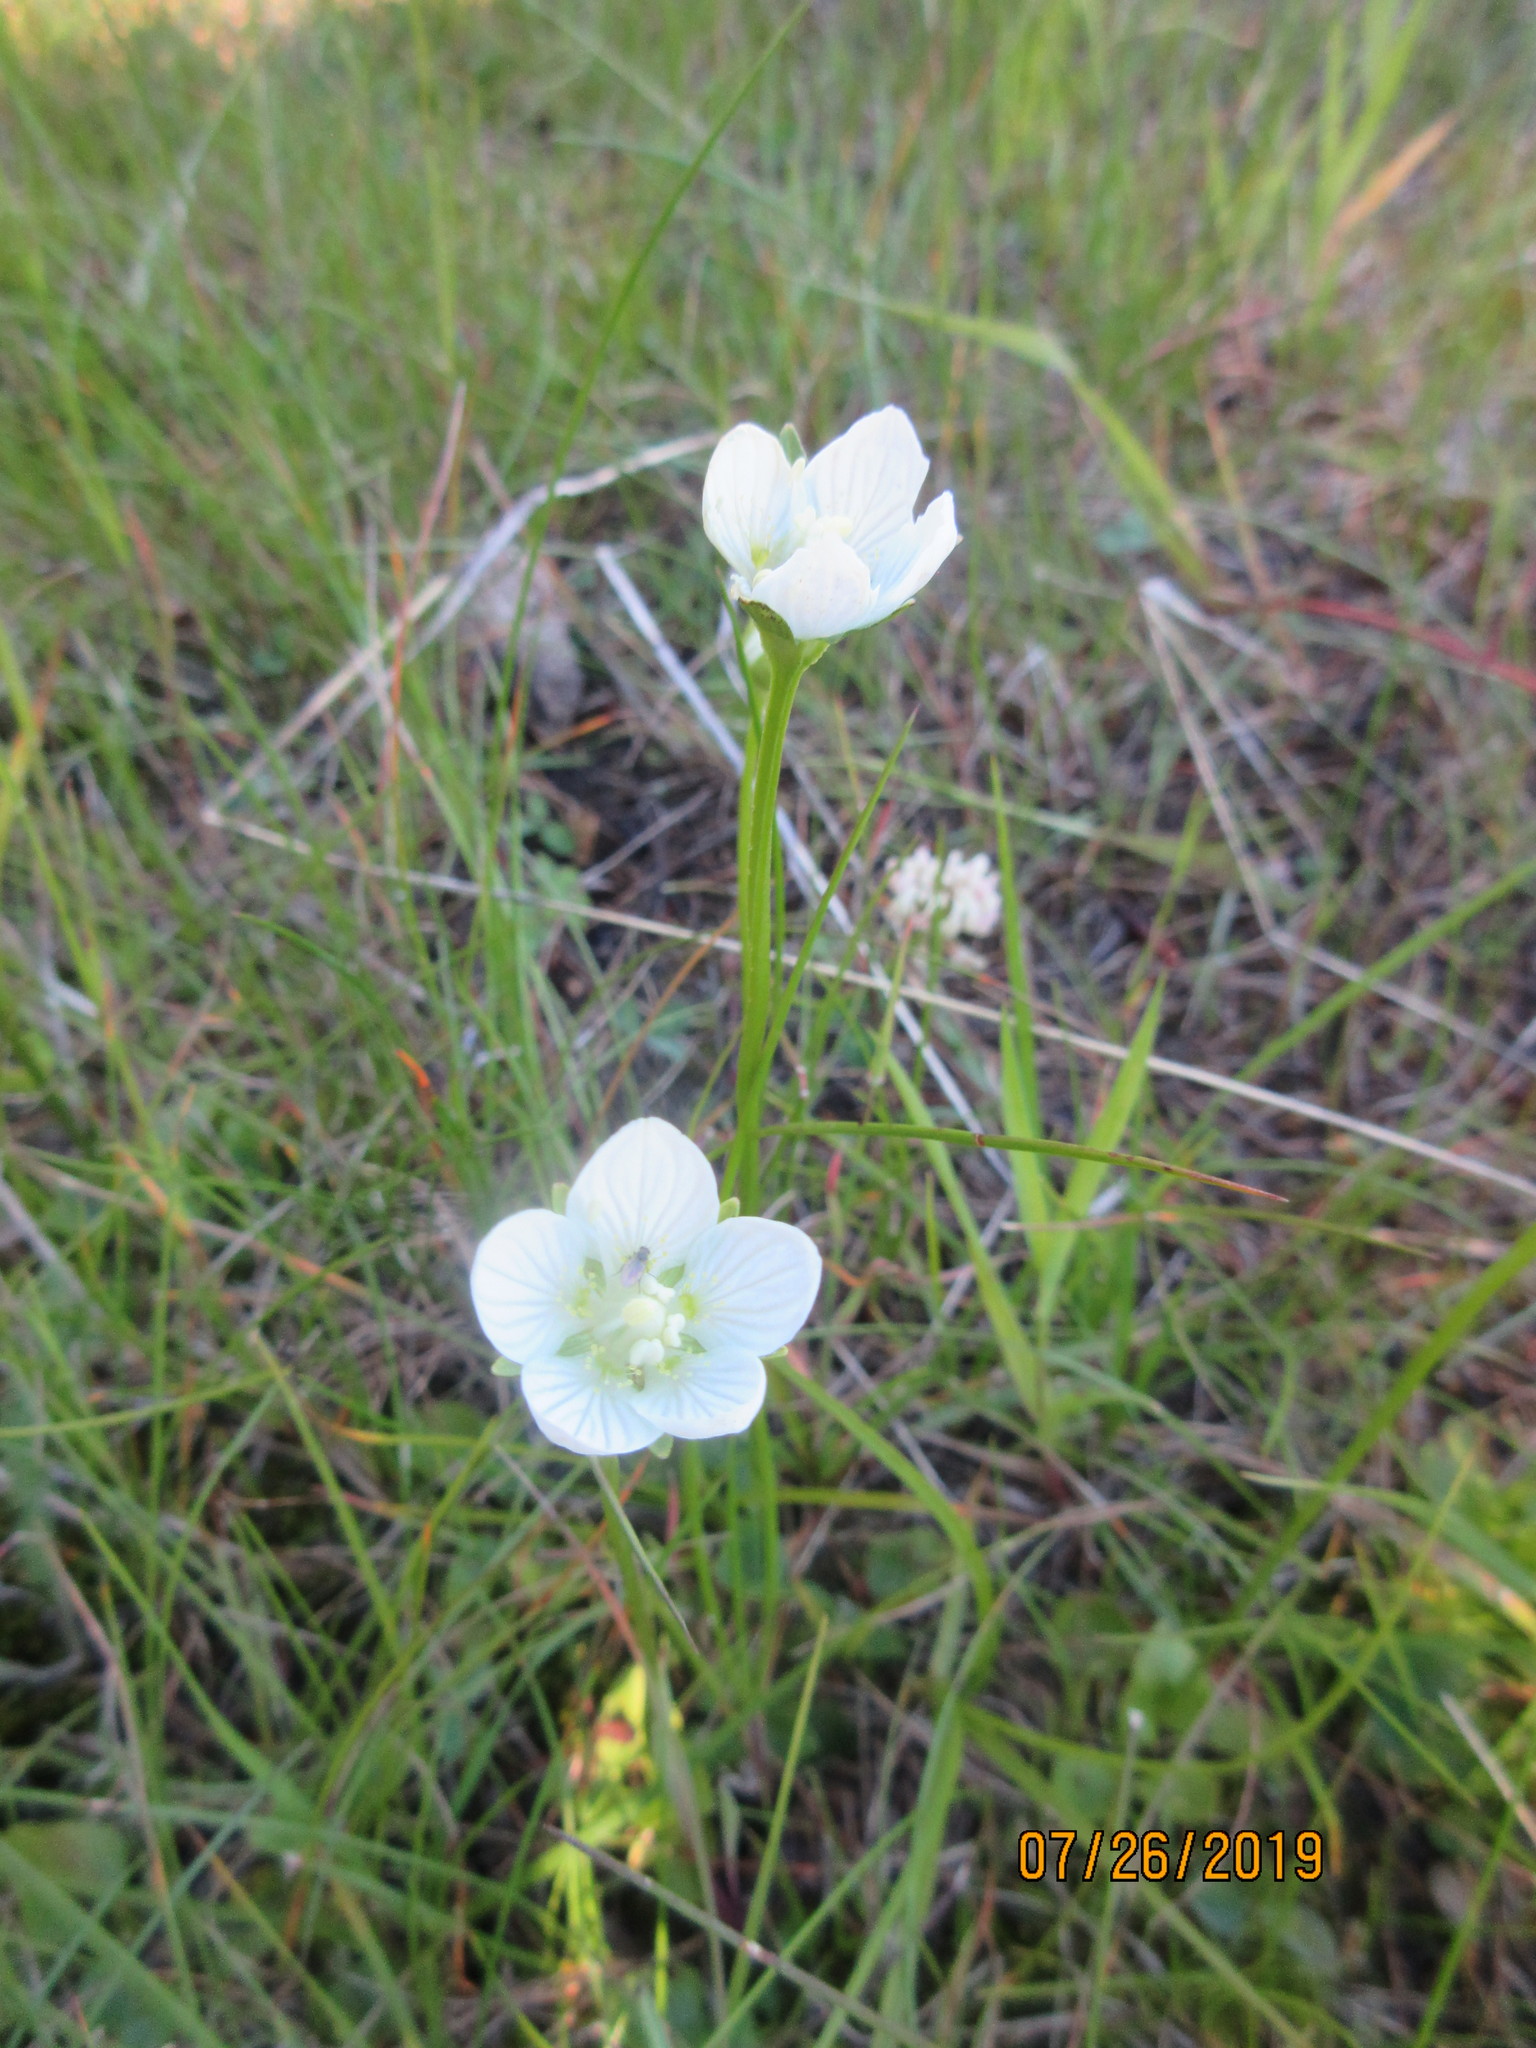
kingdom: Plantae
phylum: Tracheophyta
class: Magnoliopsida
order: Celastrales
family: Parnassiaceae
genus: Parnassia
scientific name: Parnassia palustris
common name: Grass-of-parnassus
